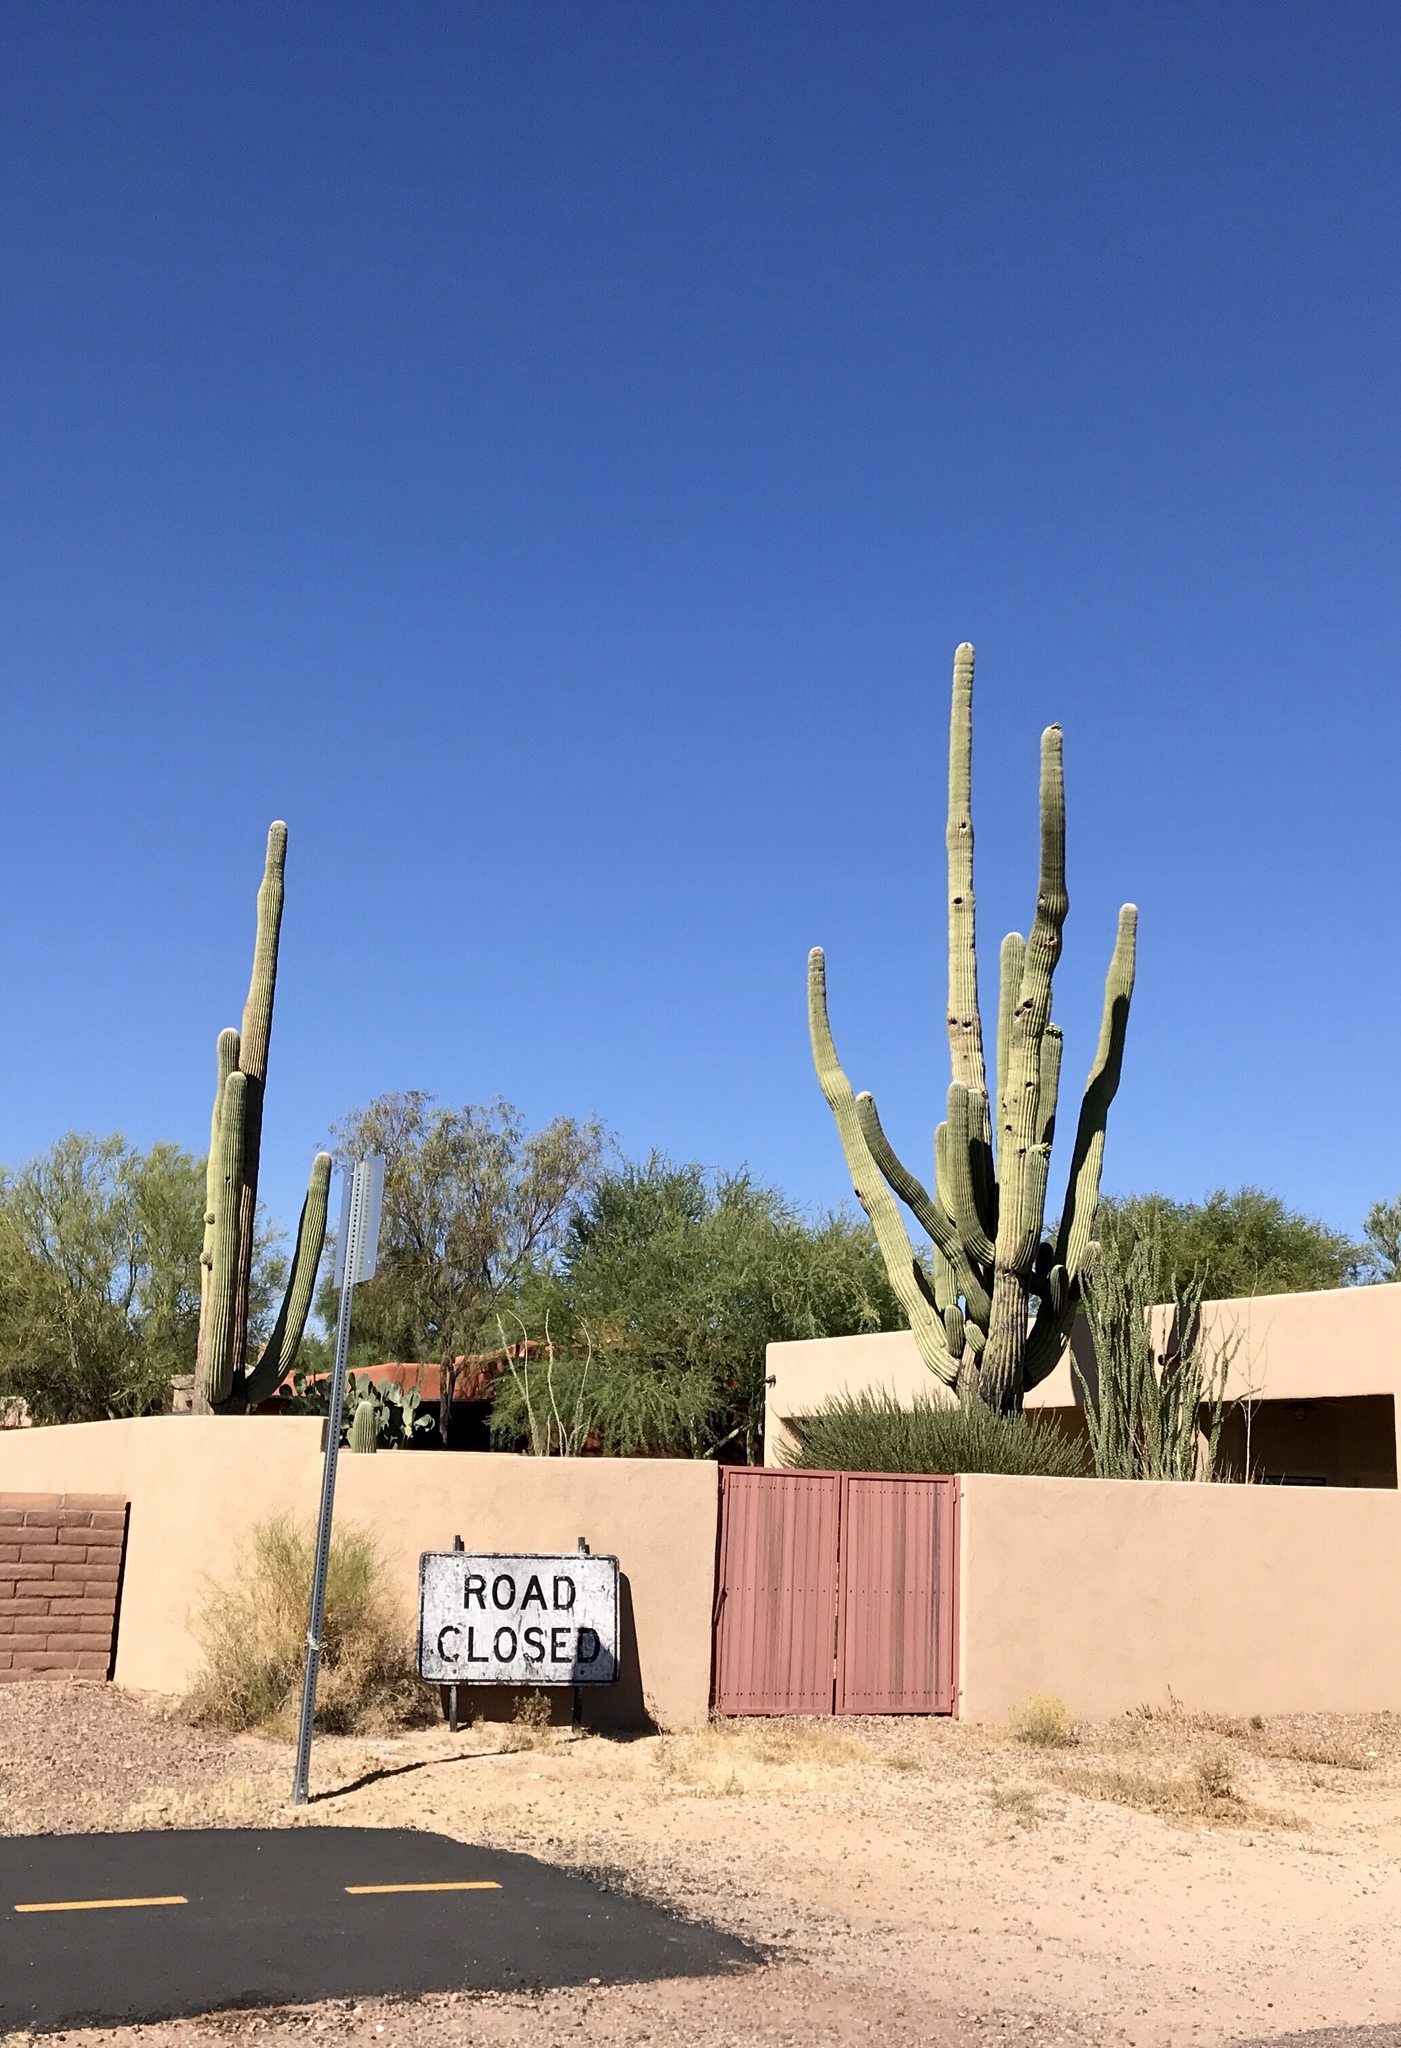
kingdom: Plantae
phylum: Tracheophyta
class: Magnoliopsida
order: Caryophyllales
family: Cactaceae
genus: Carnegiea
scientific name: Carnegiea gigantea
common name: Saguaro
